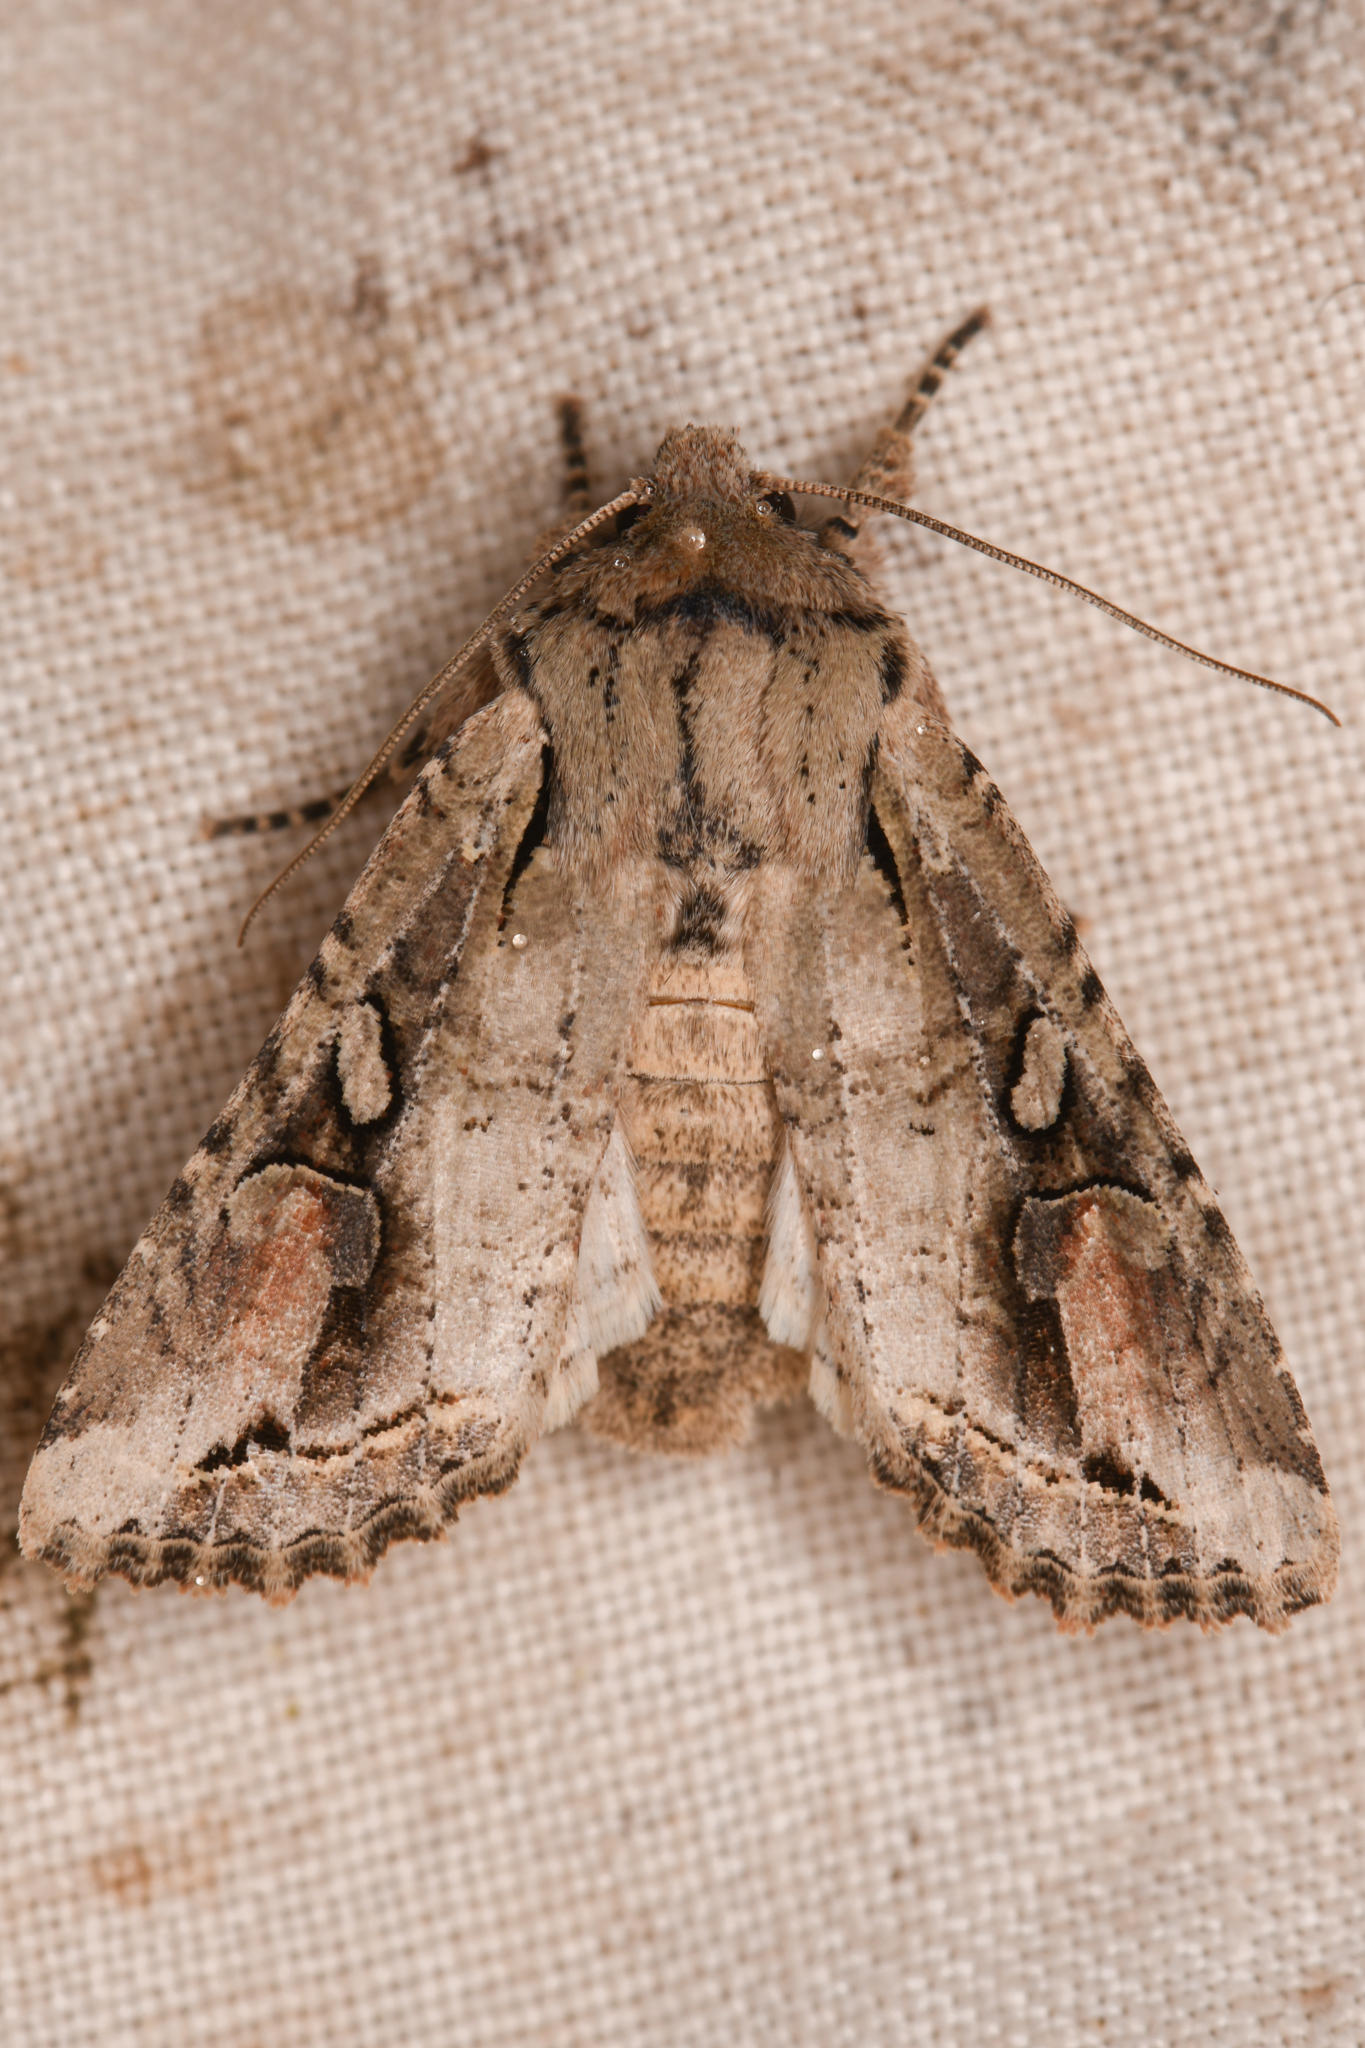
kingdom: Animalia
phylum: Arthropoda
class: Insecta
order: Lepidoptera
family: Noctuidae
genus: Egira
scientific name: Egira rubrica
